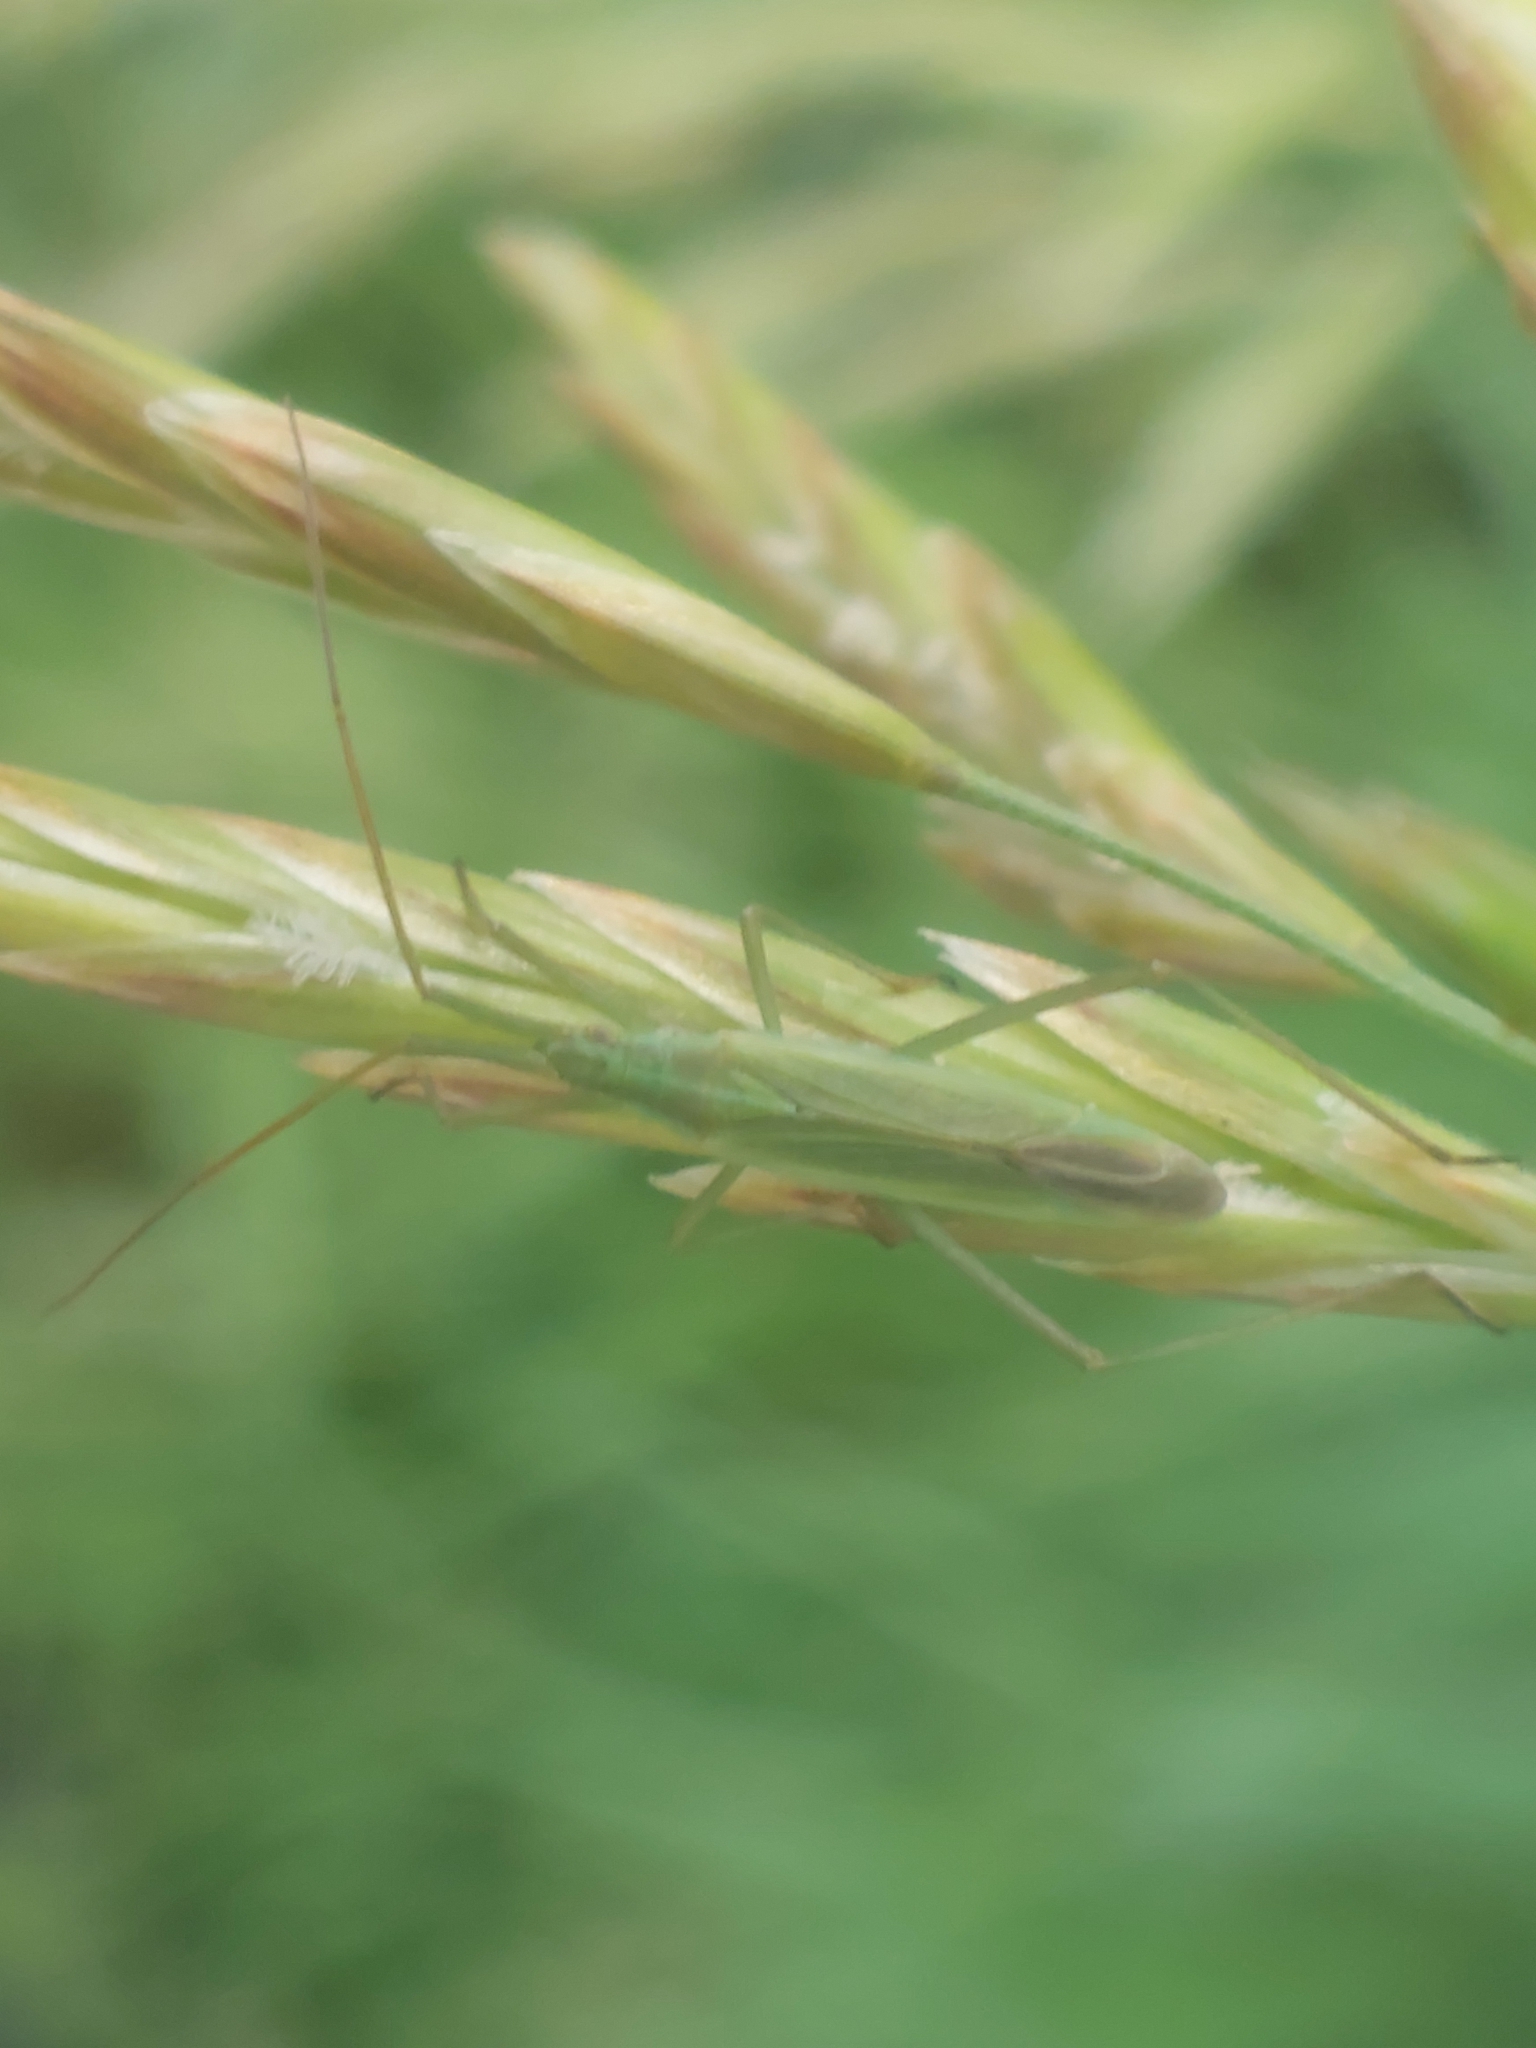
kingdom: Animalia
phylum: Arthropoda
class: Insecta
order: Hemiptera
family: Miridae
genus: Megaloceroea
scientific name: Megaloceroea recticornis
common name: Plant bug
